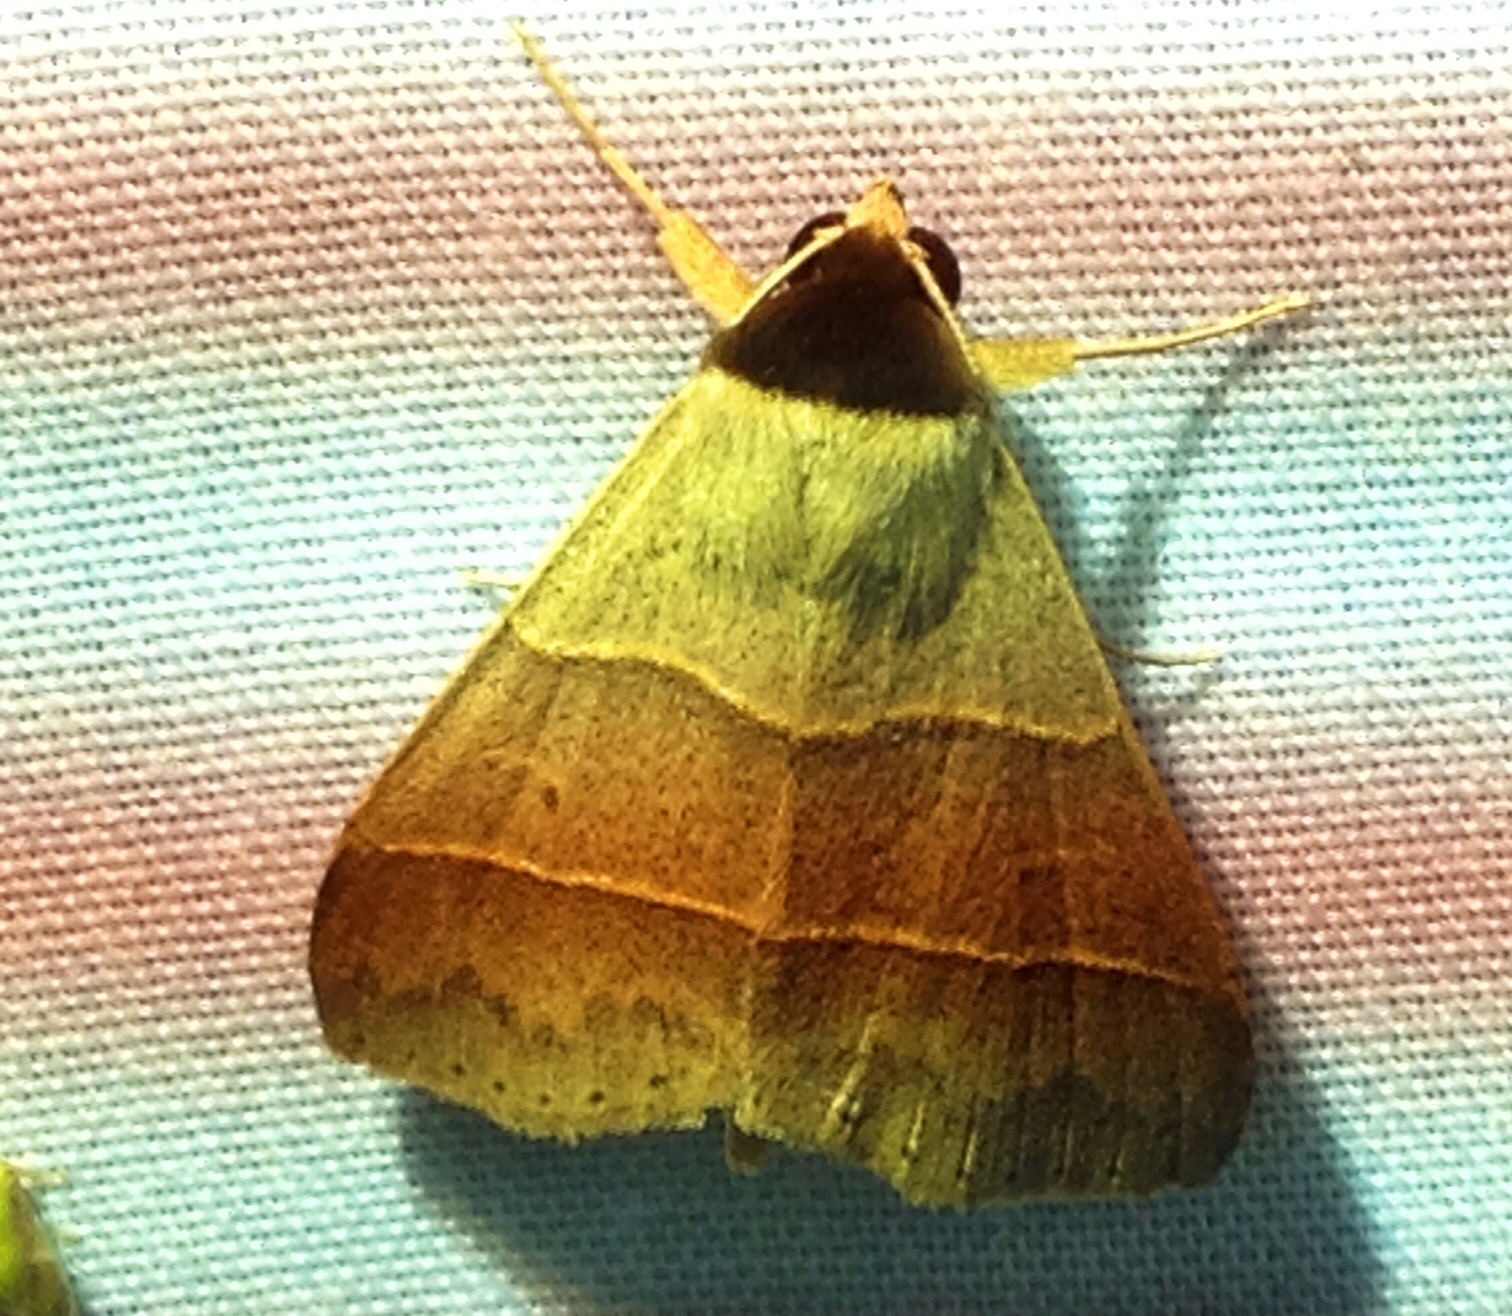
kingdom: Animalia
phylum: Arthropoda
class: Insecta
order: Lepidoptera
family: Erebidae
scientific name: Erebidae
